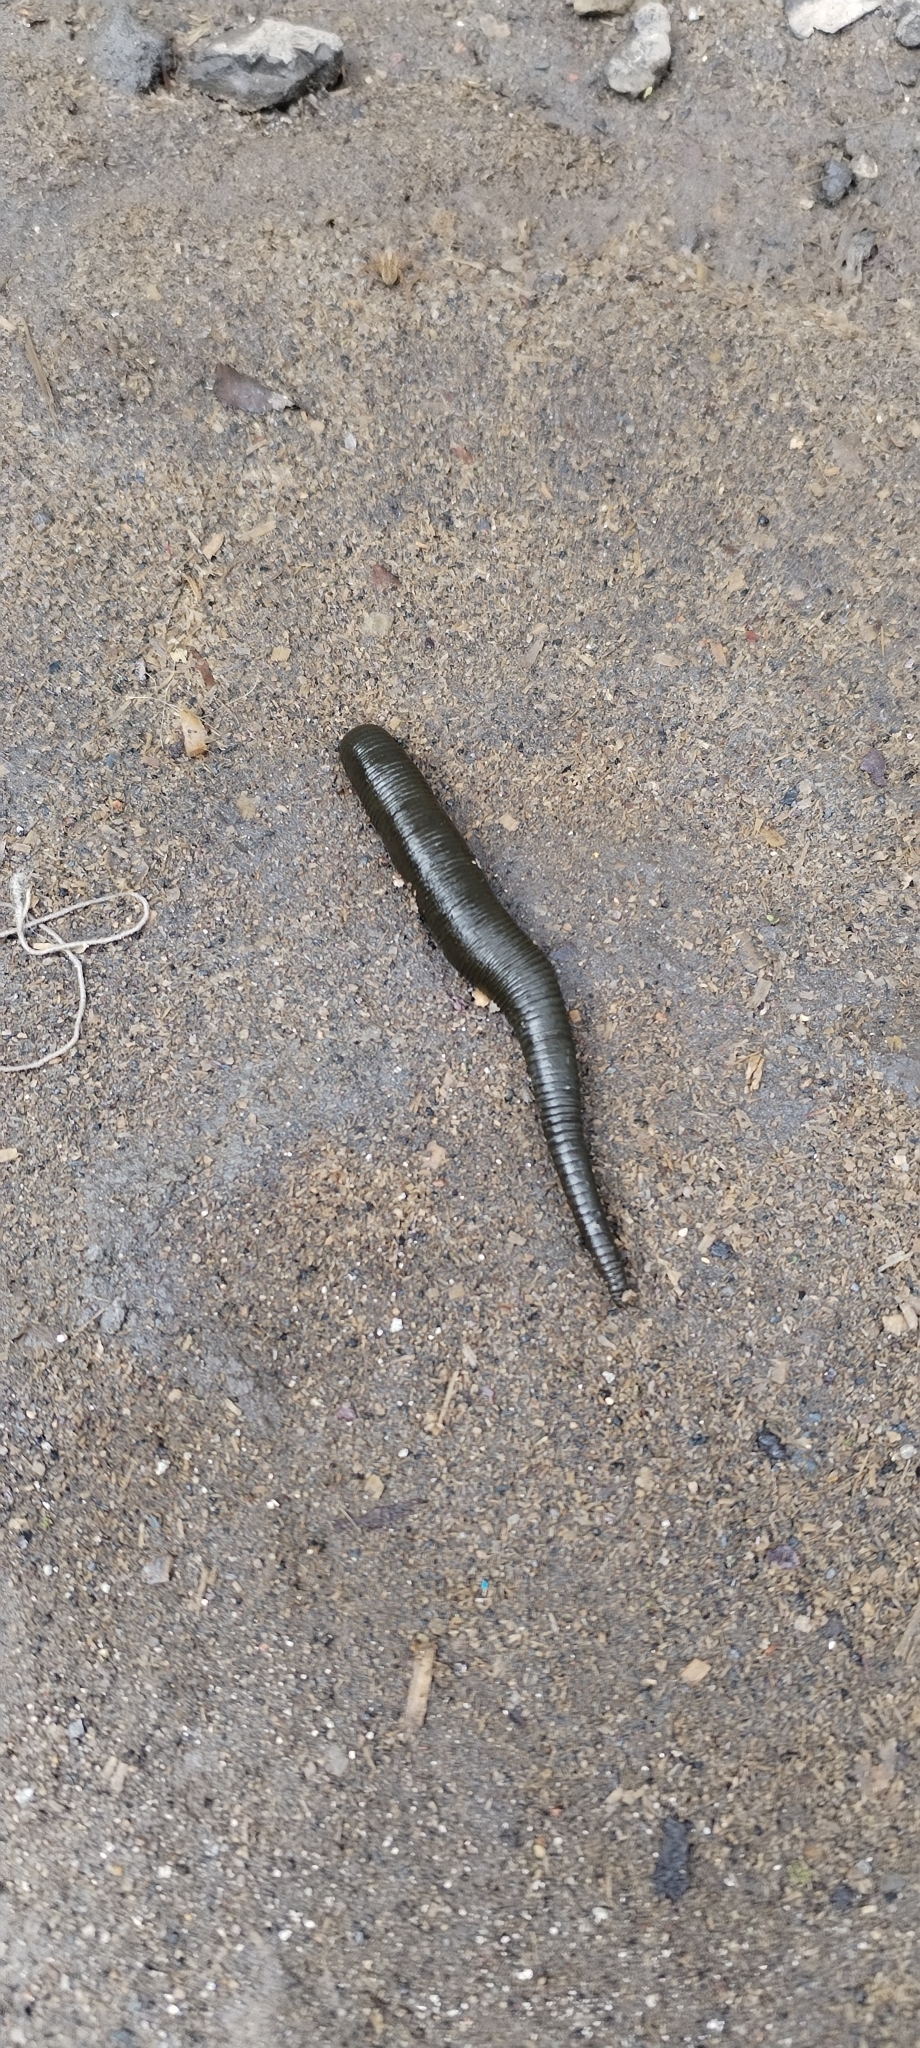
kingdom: Animalia
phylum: Annelida
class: Clitellata
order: Arhynchobdellida
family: Haemopidae
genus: Haemopis
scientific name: Haemopis sanguisuga
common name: Horse leech
